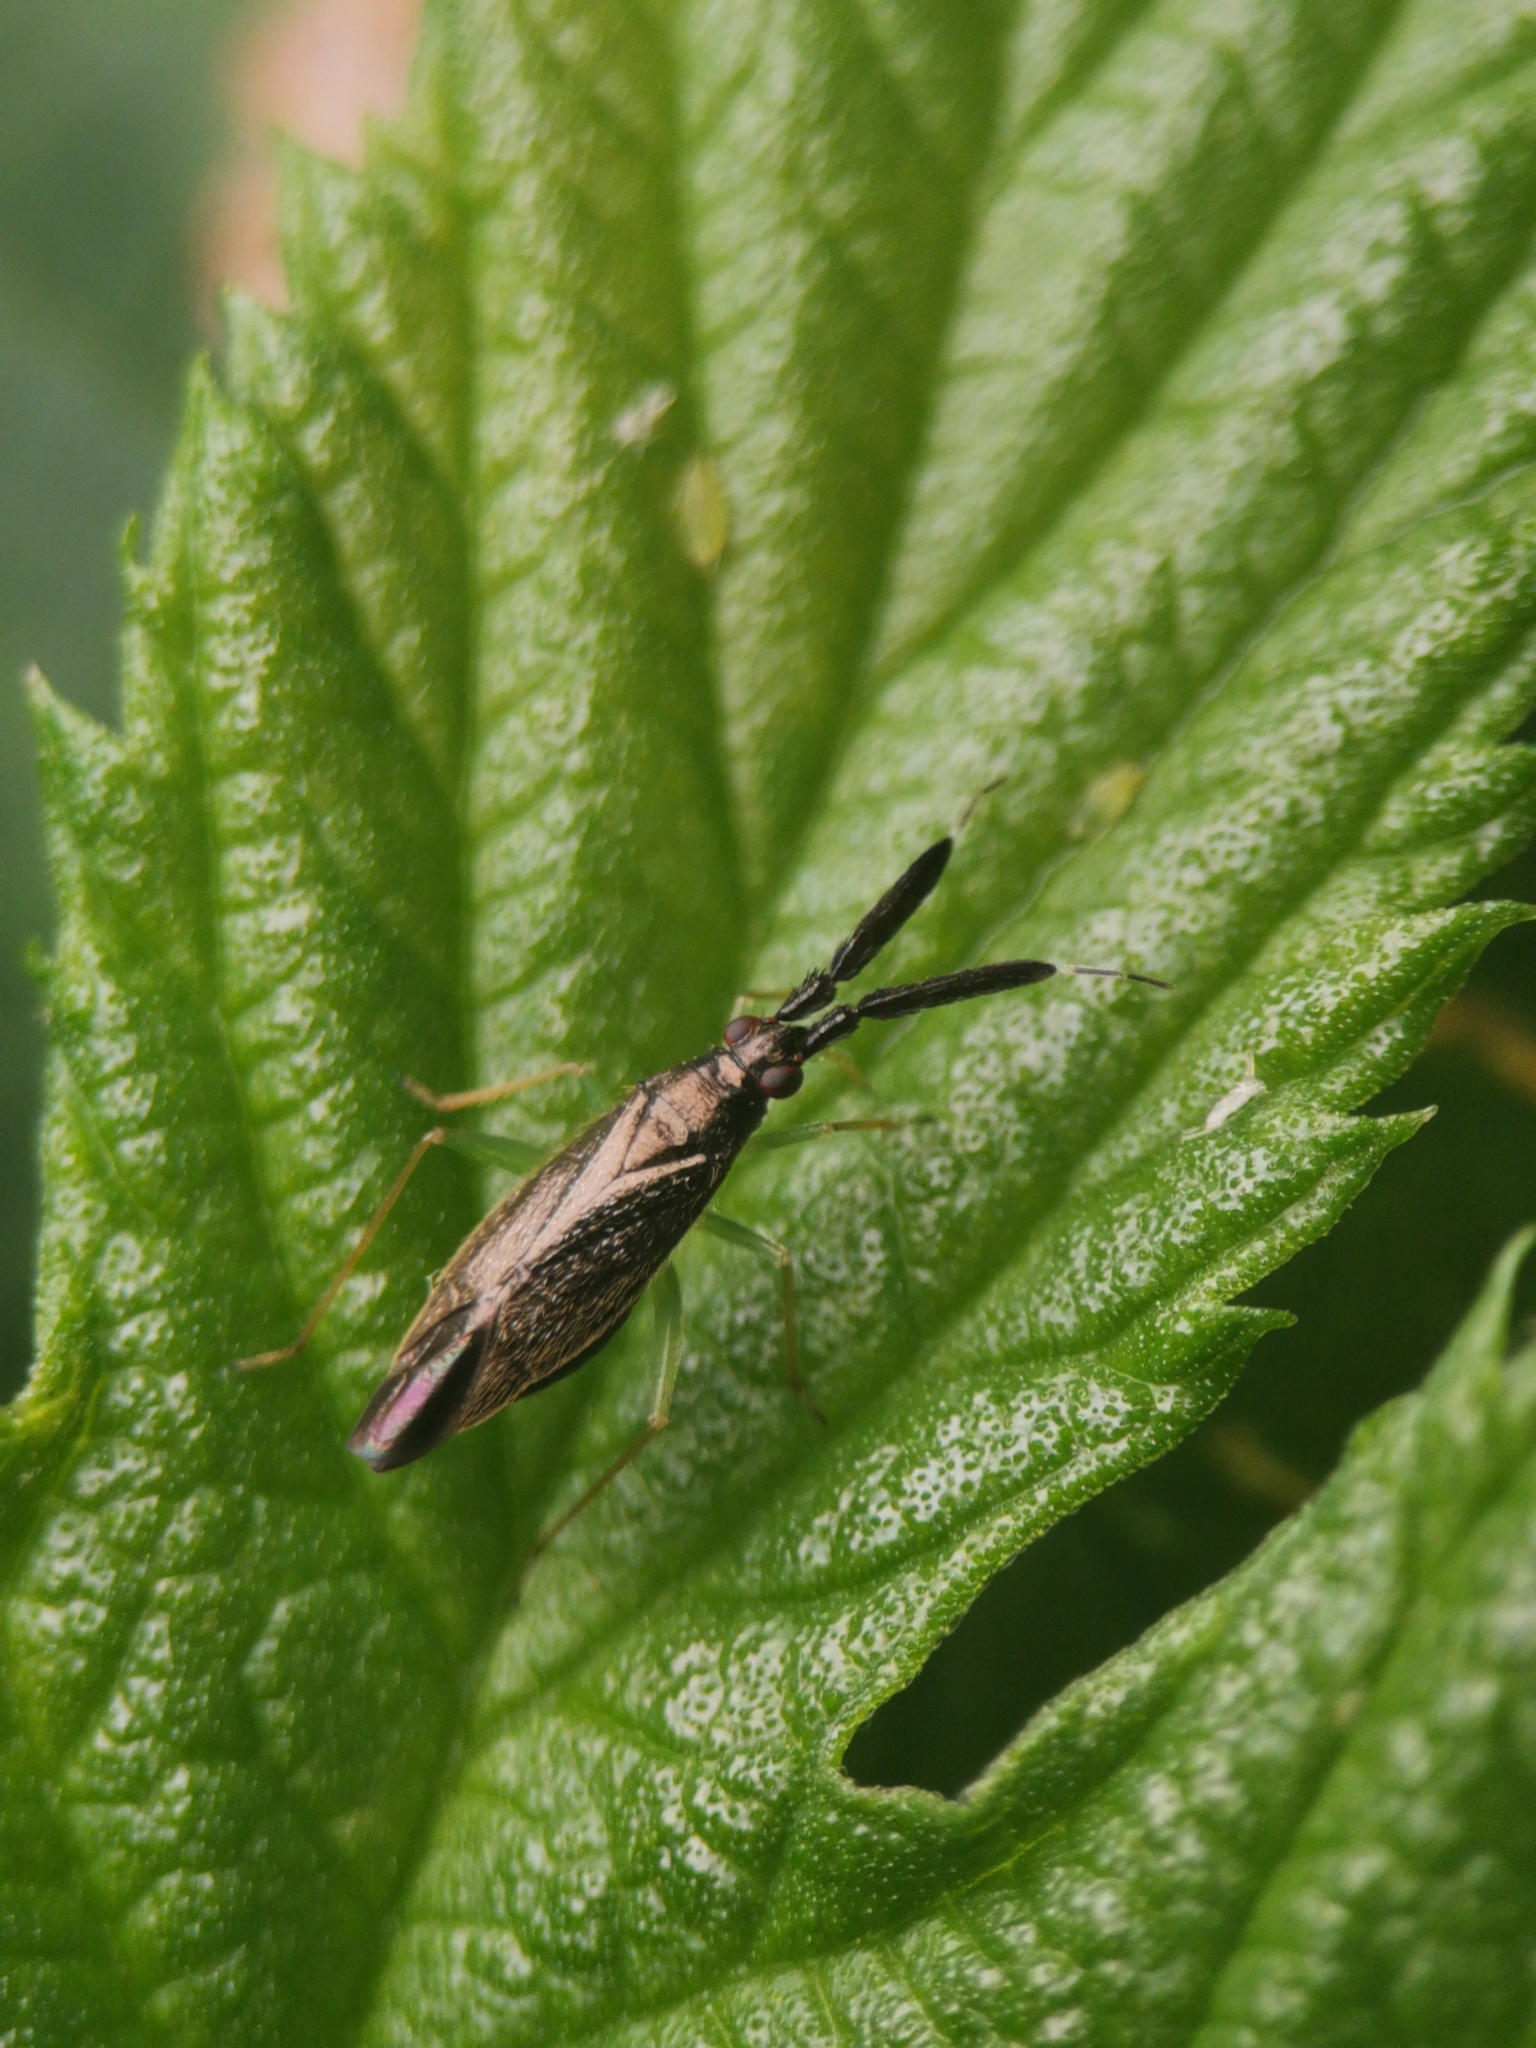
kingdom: Animalia
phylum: Arthropoda
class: Insecta
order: Hemiptera
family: Miridae
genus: Heterotoma
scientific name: Heterotoma planicornis
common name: Plant bug
